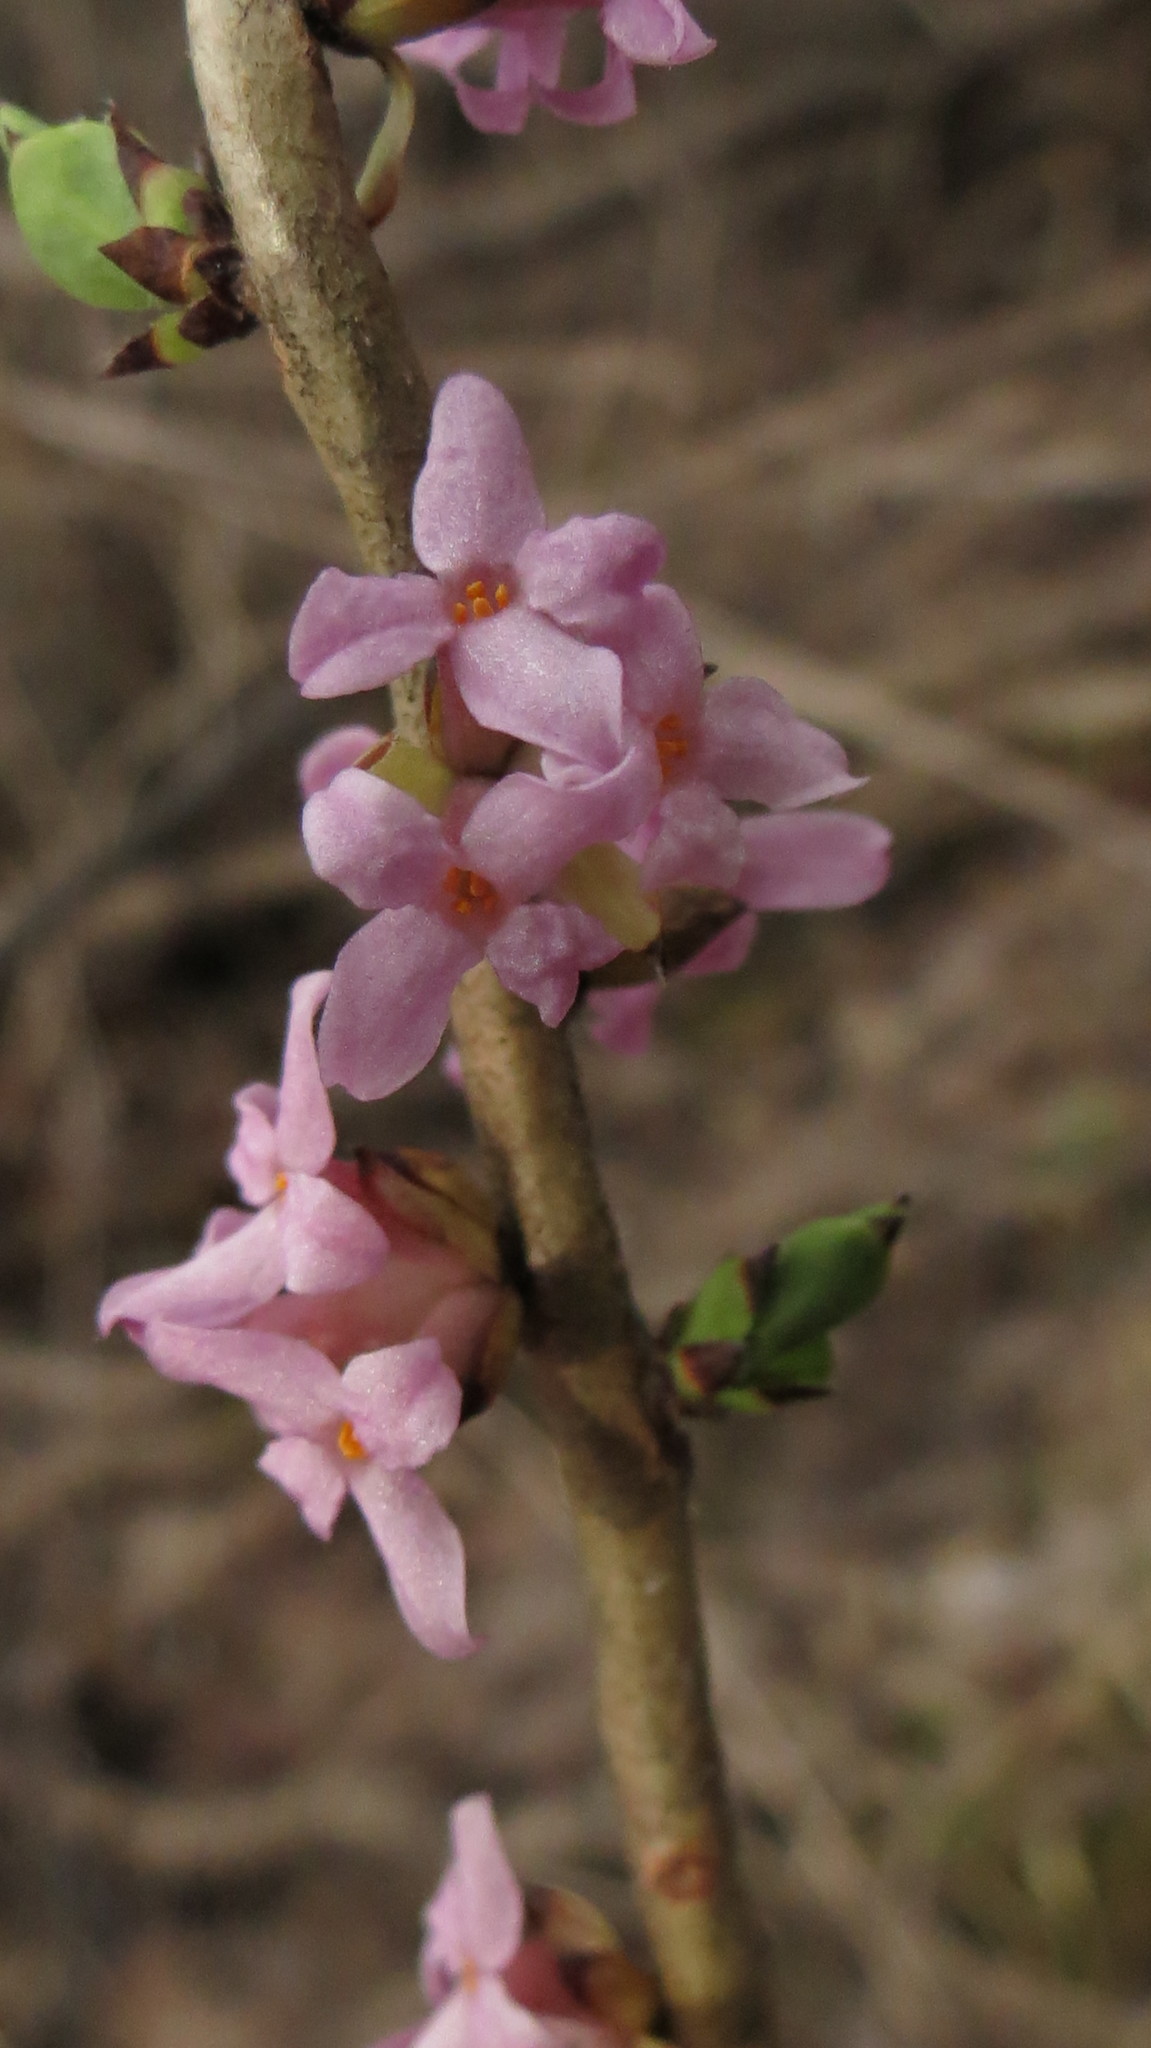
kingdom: Plantae
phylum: Tracheophyta
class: Magnoliopsida
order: Malvales
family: Thymelaeaceae
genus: Daphne
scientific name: Daphne mezereum
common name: Mezereon
